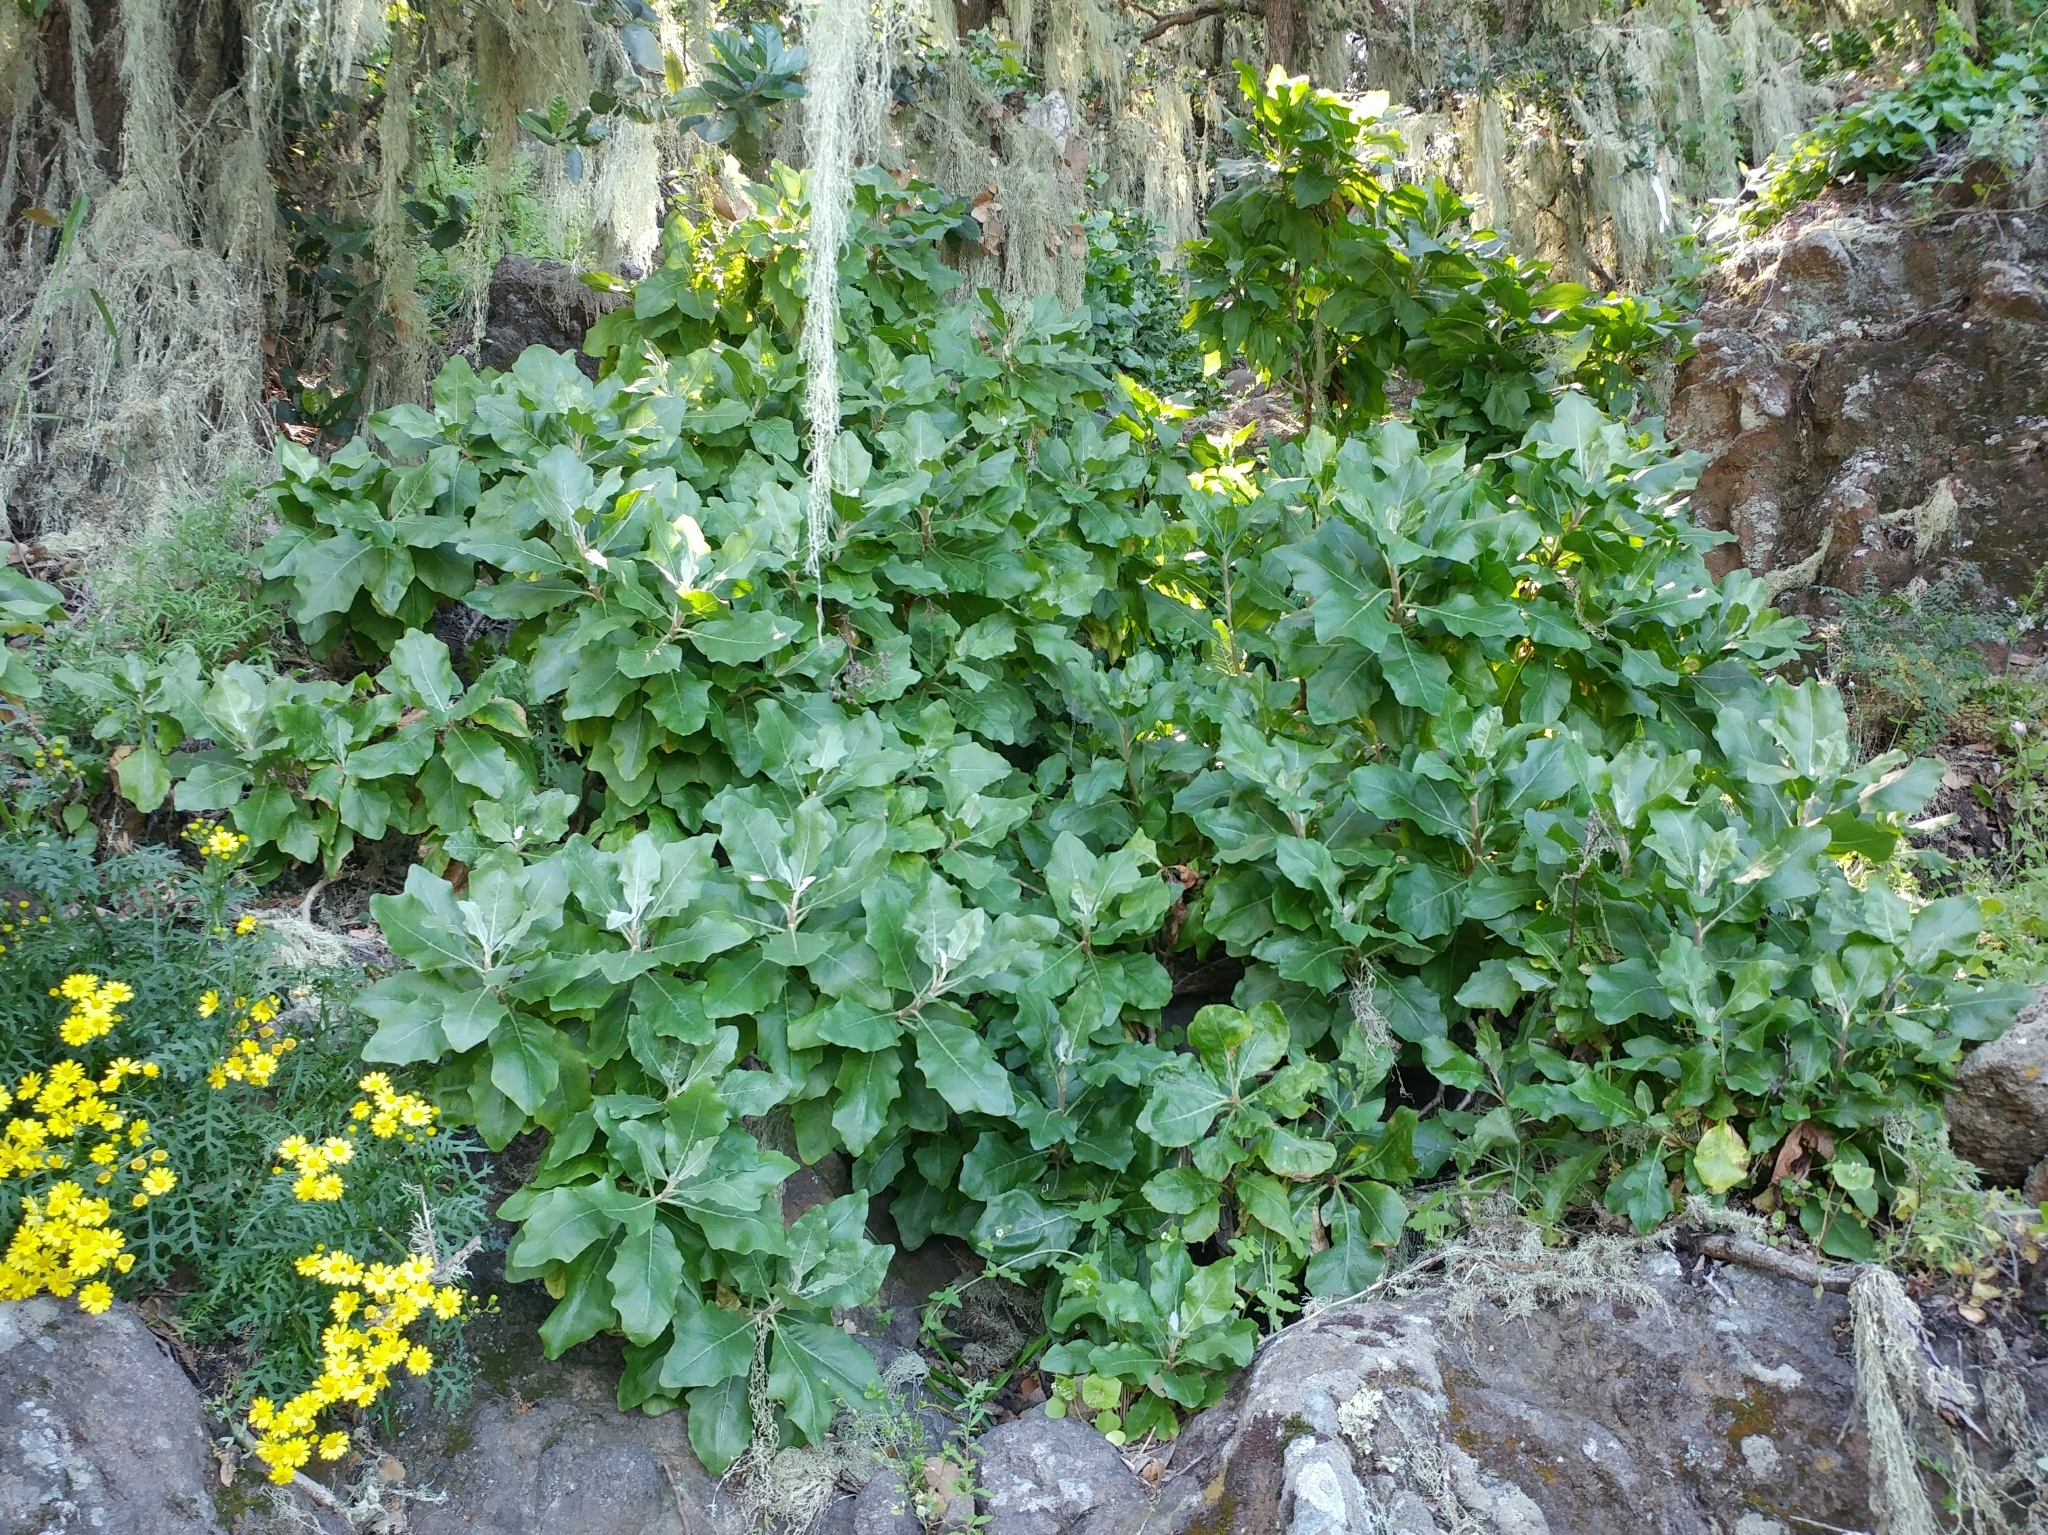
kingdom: Plantae
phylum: Tracheophyta
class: Magnoliopsida
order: Asterales
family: Asteraceae
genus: Munzothamnus
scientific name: Munzothamnus blairii
